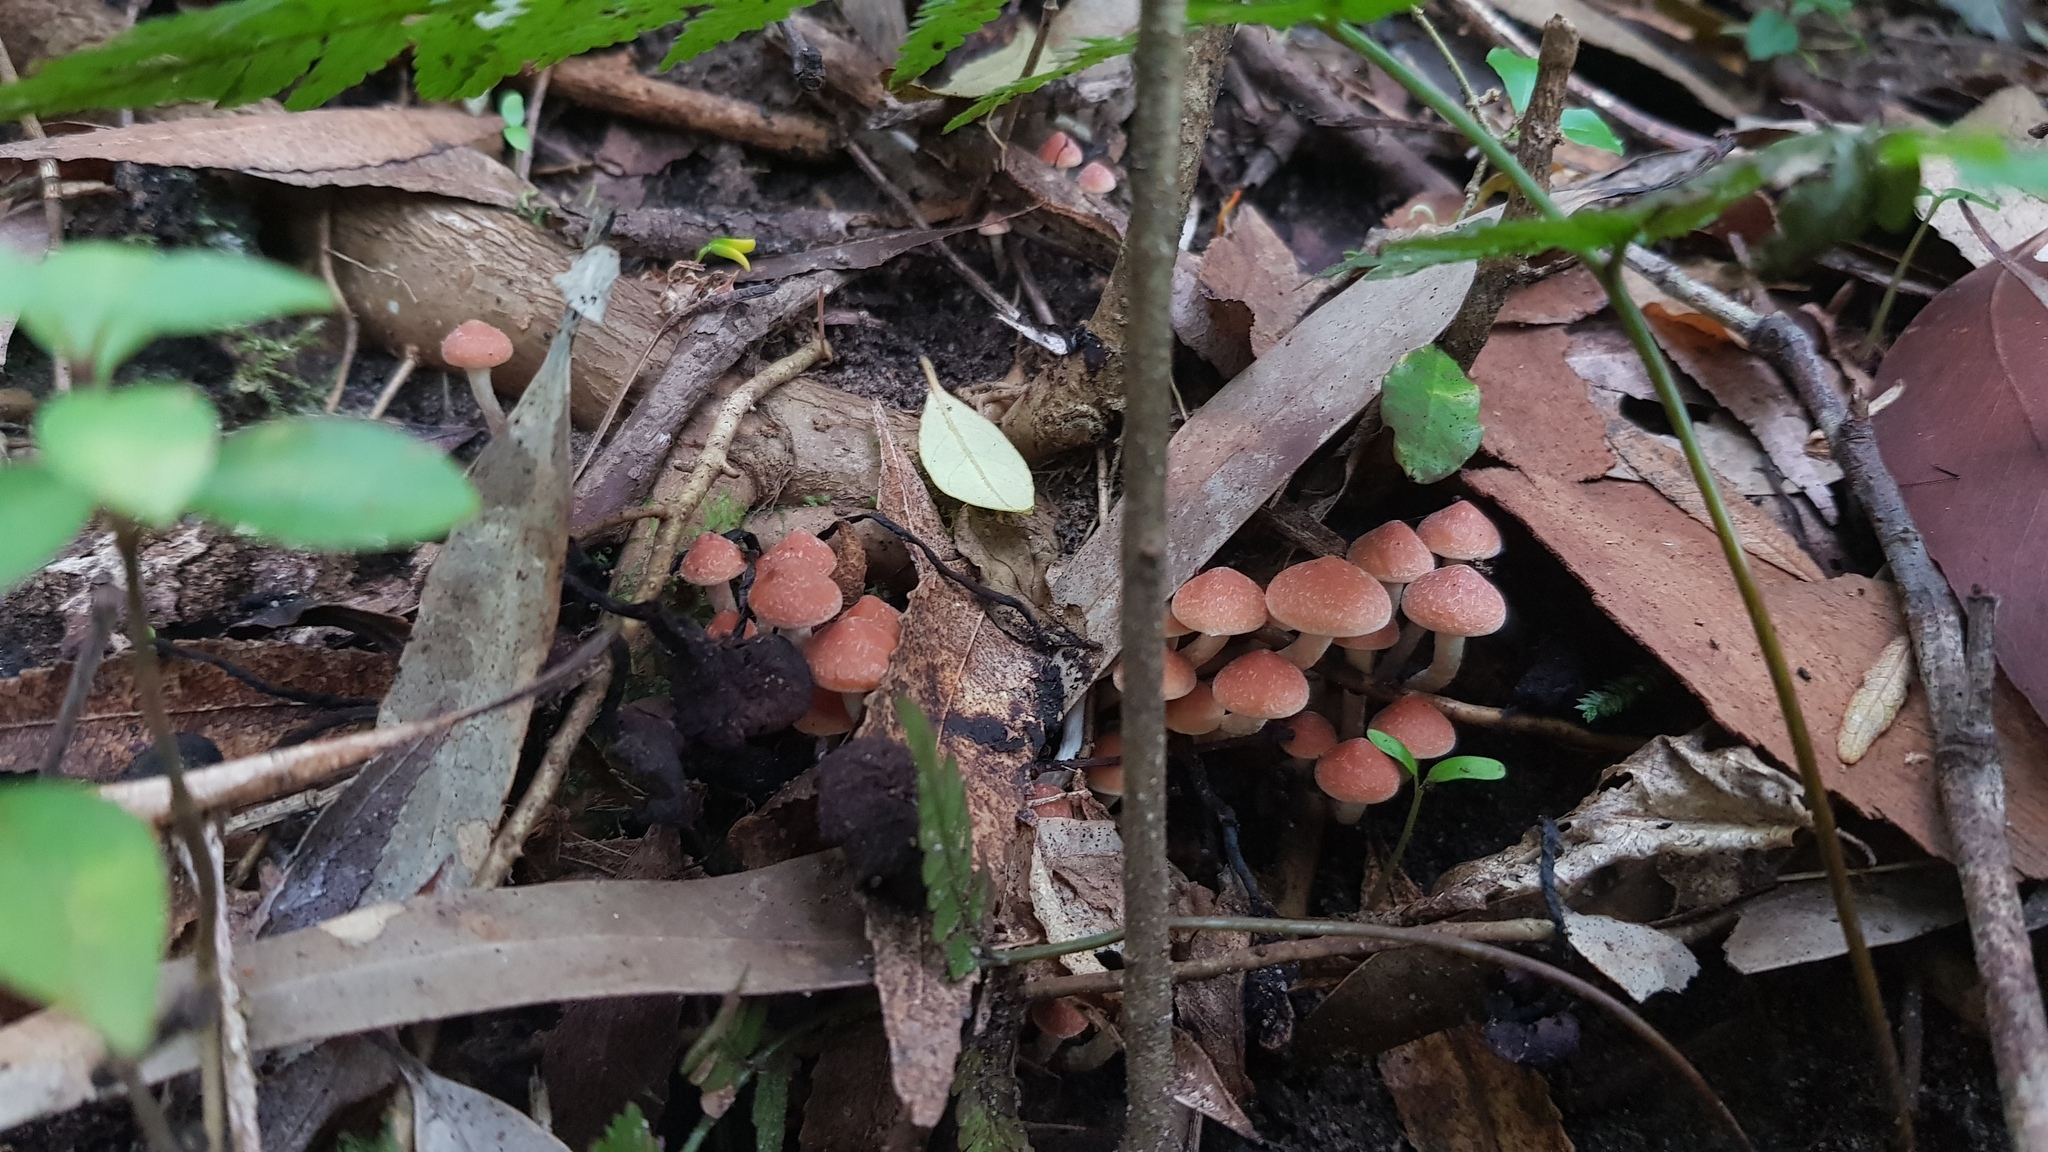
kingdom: Fungi
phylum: Basidiomycota
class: Agaricomycetes
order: Agaricales
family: Strophariaceae
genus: Hypholoma
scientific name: Hypholoma australianum
